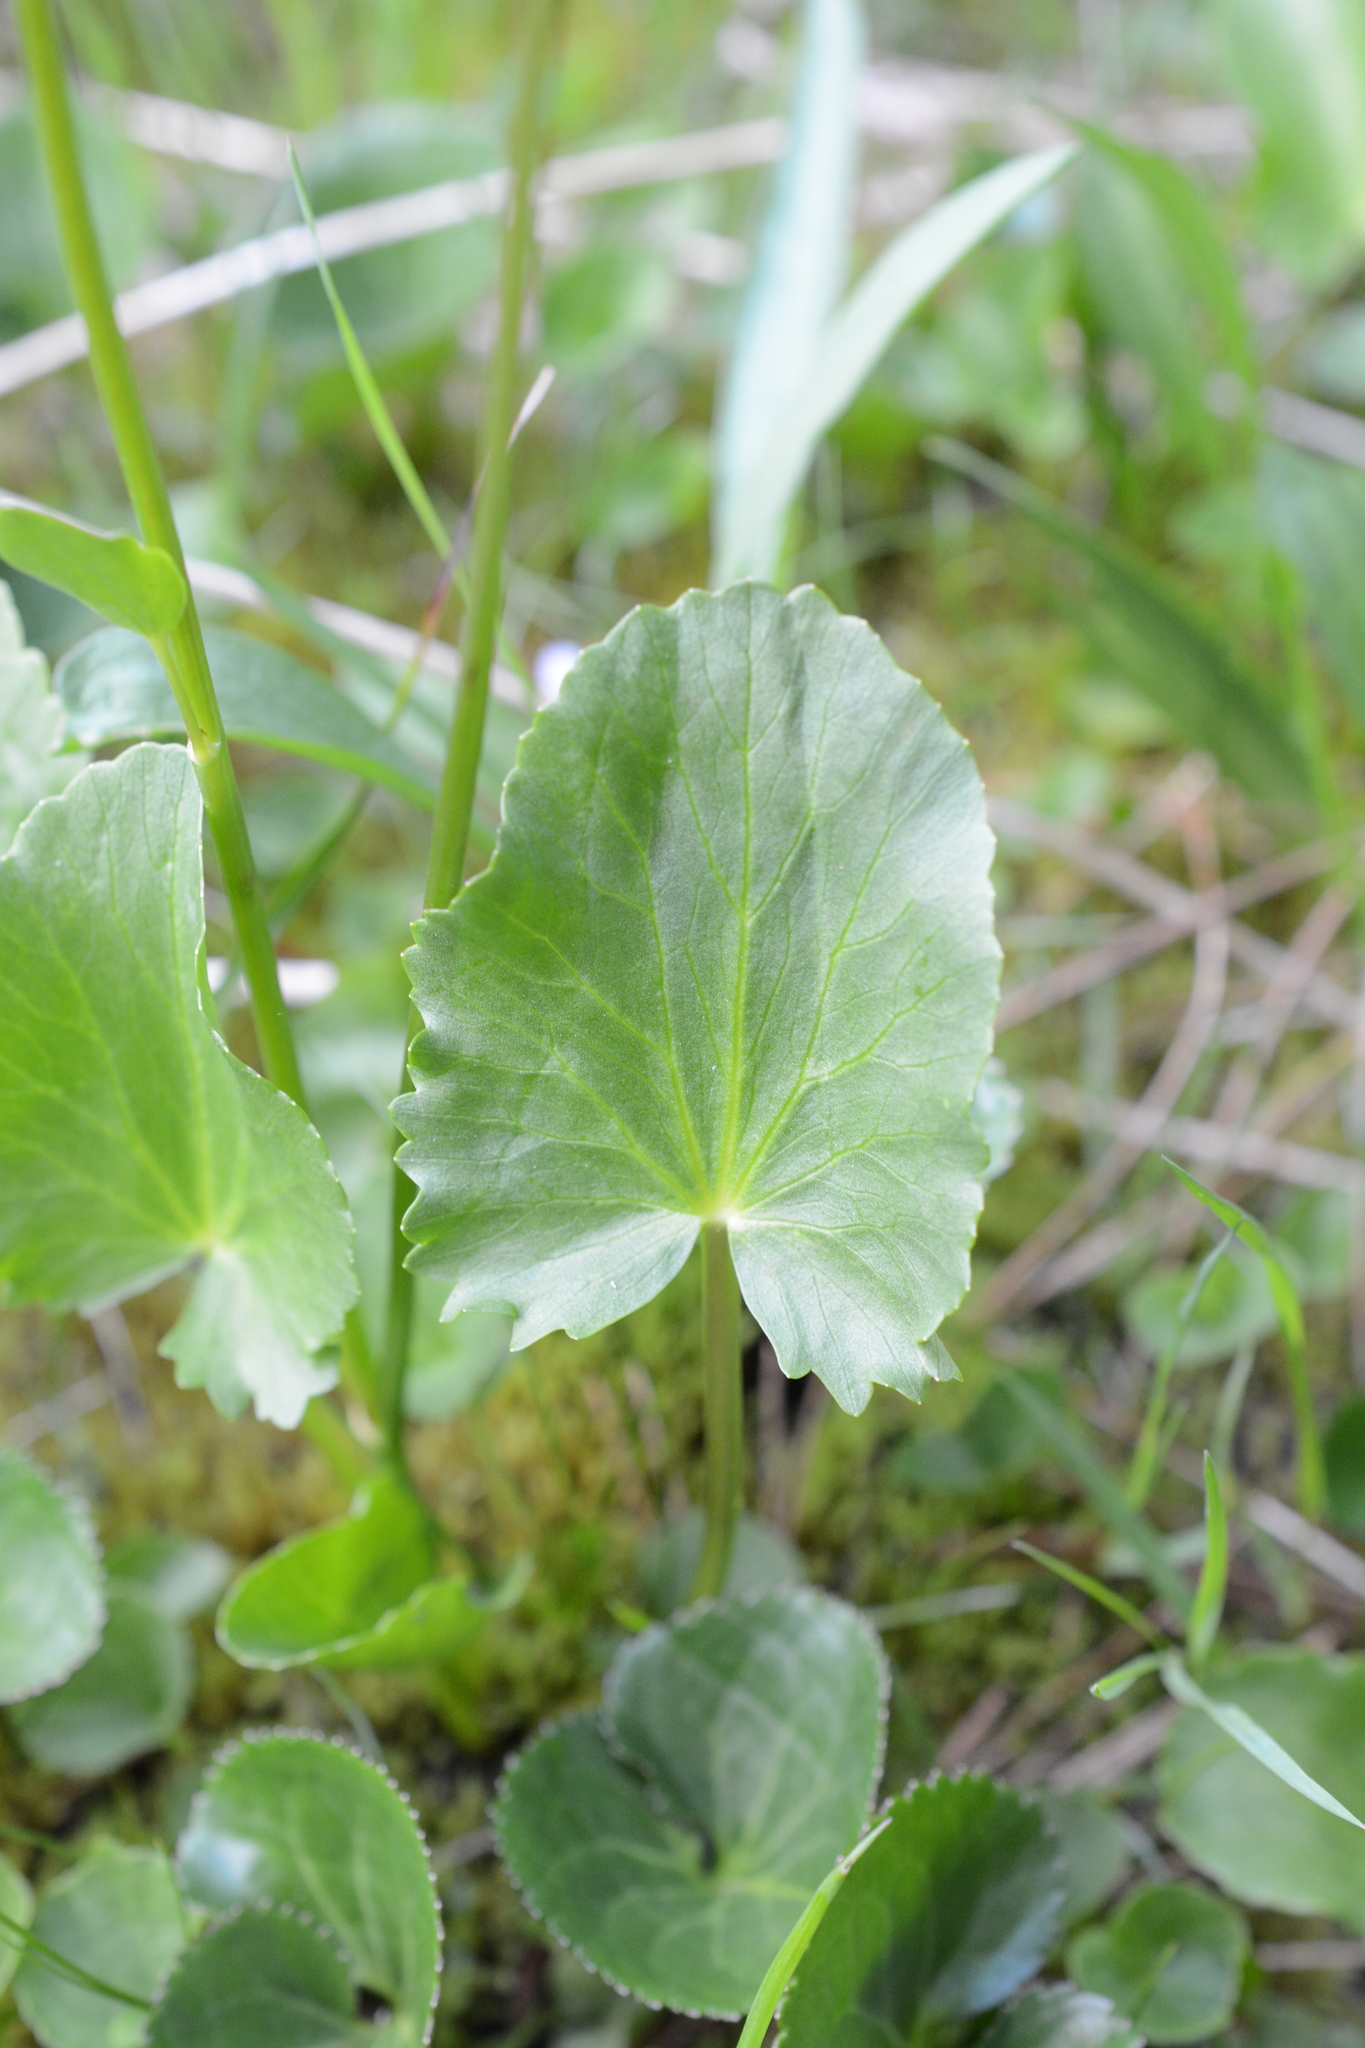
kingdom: Plantae
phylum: Tracheophyta
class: Magnoliopsida
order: Ranunculales
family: Ranunculaceae
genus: Caltha
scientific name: Caltha leptosepala
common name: Elkslip
